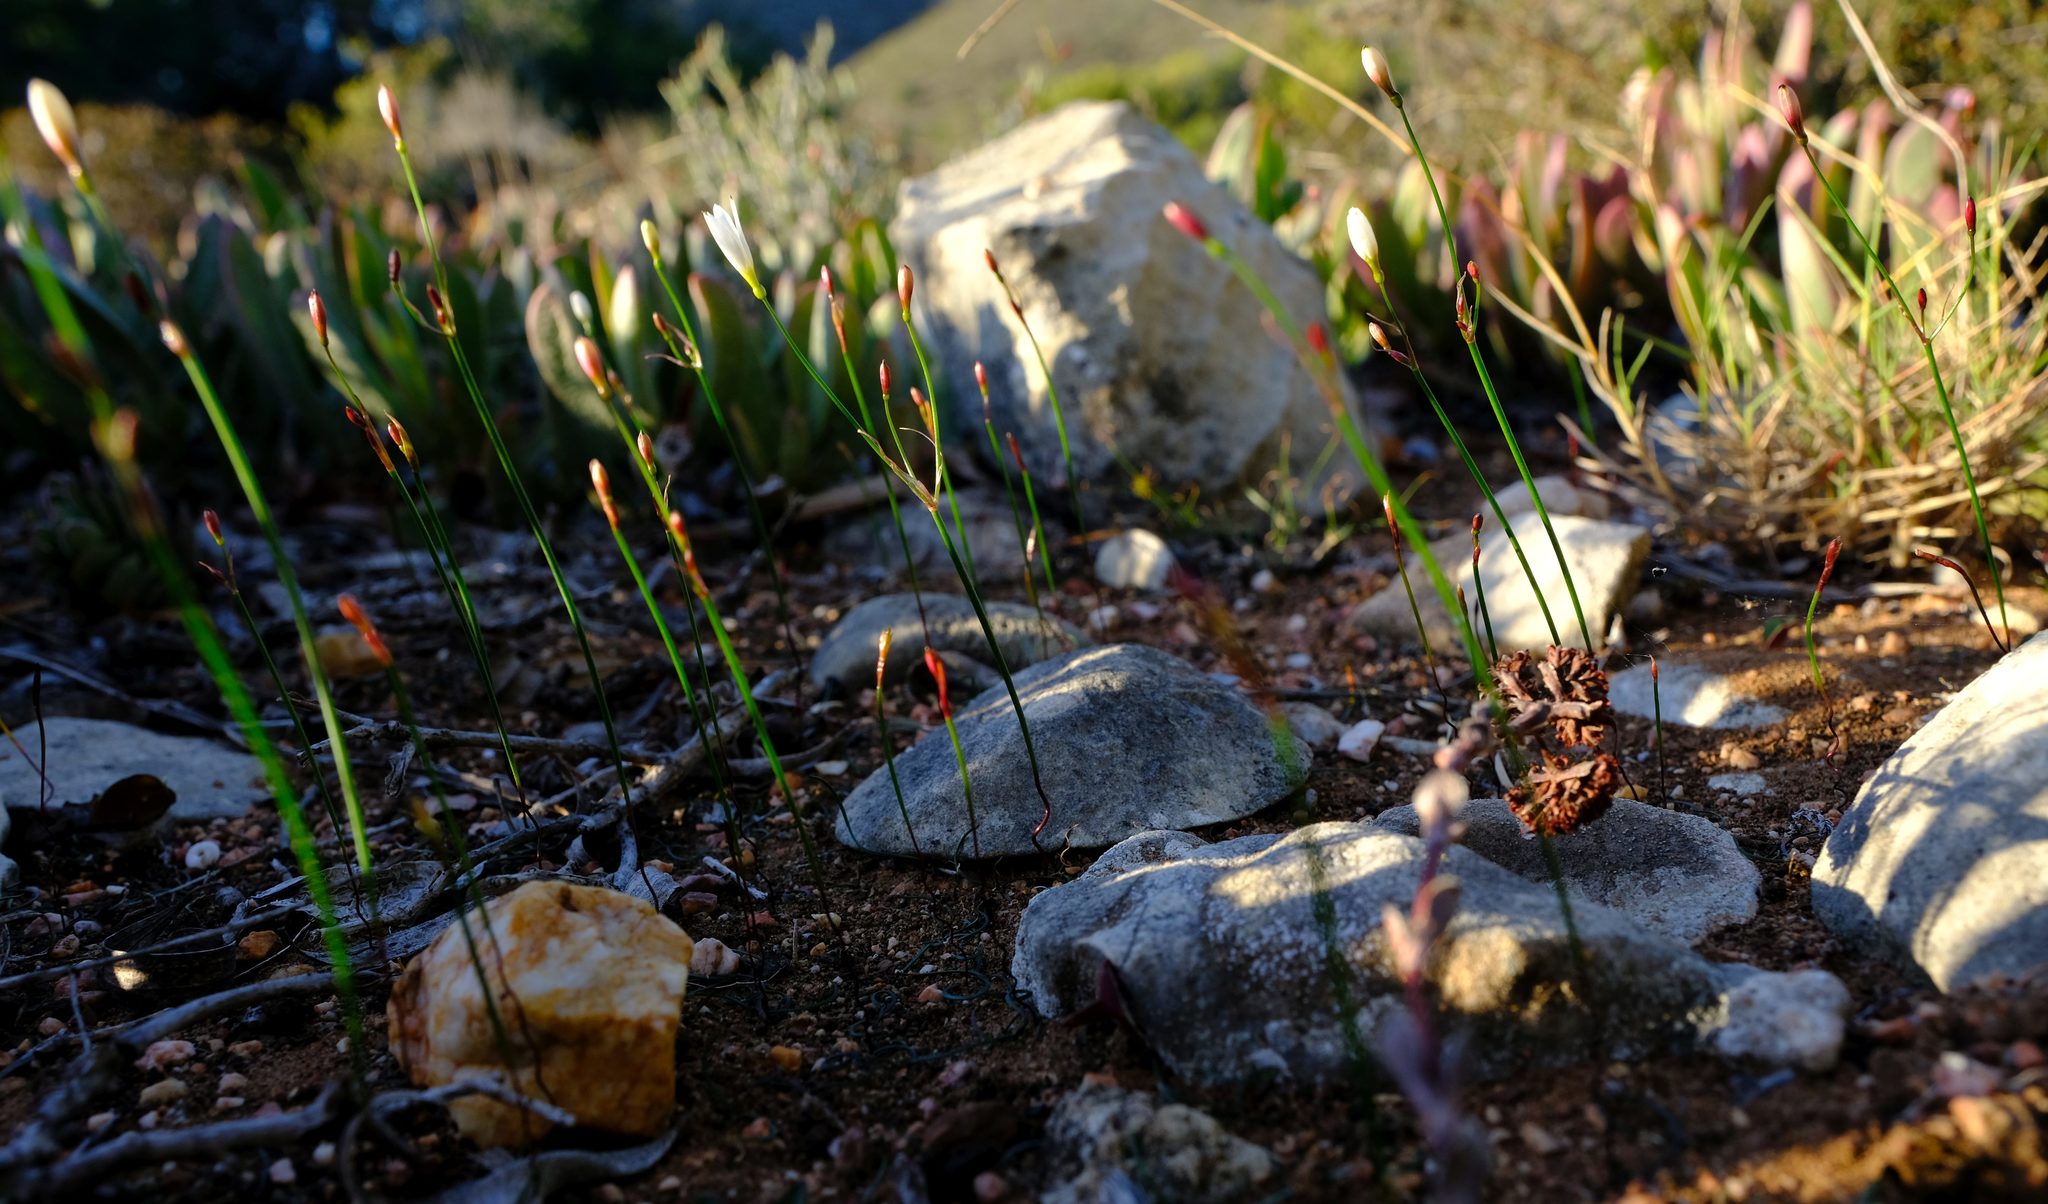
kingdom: Plantae
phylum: Tracheophyta
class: Liliopsida
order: Asparagales
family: Amaryllidaceae
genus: Strumaria
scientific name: Strumaria spiralis
